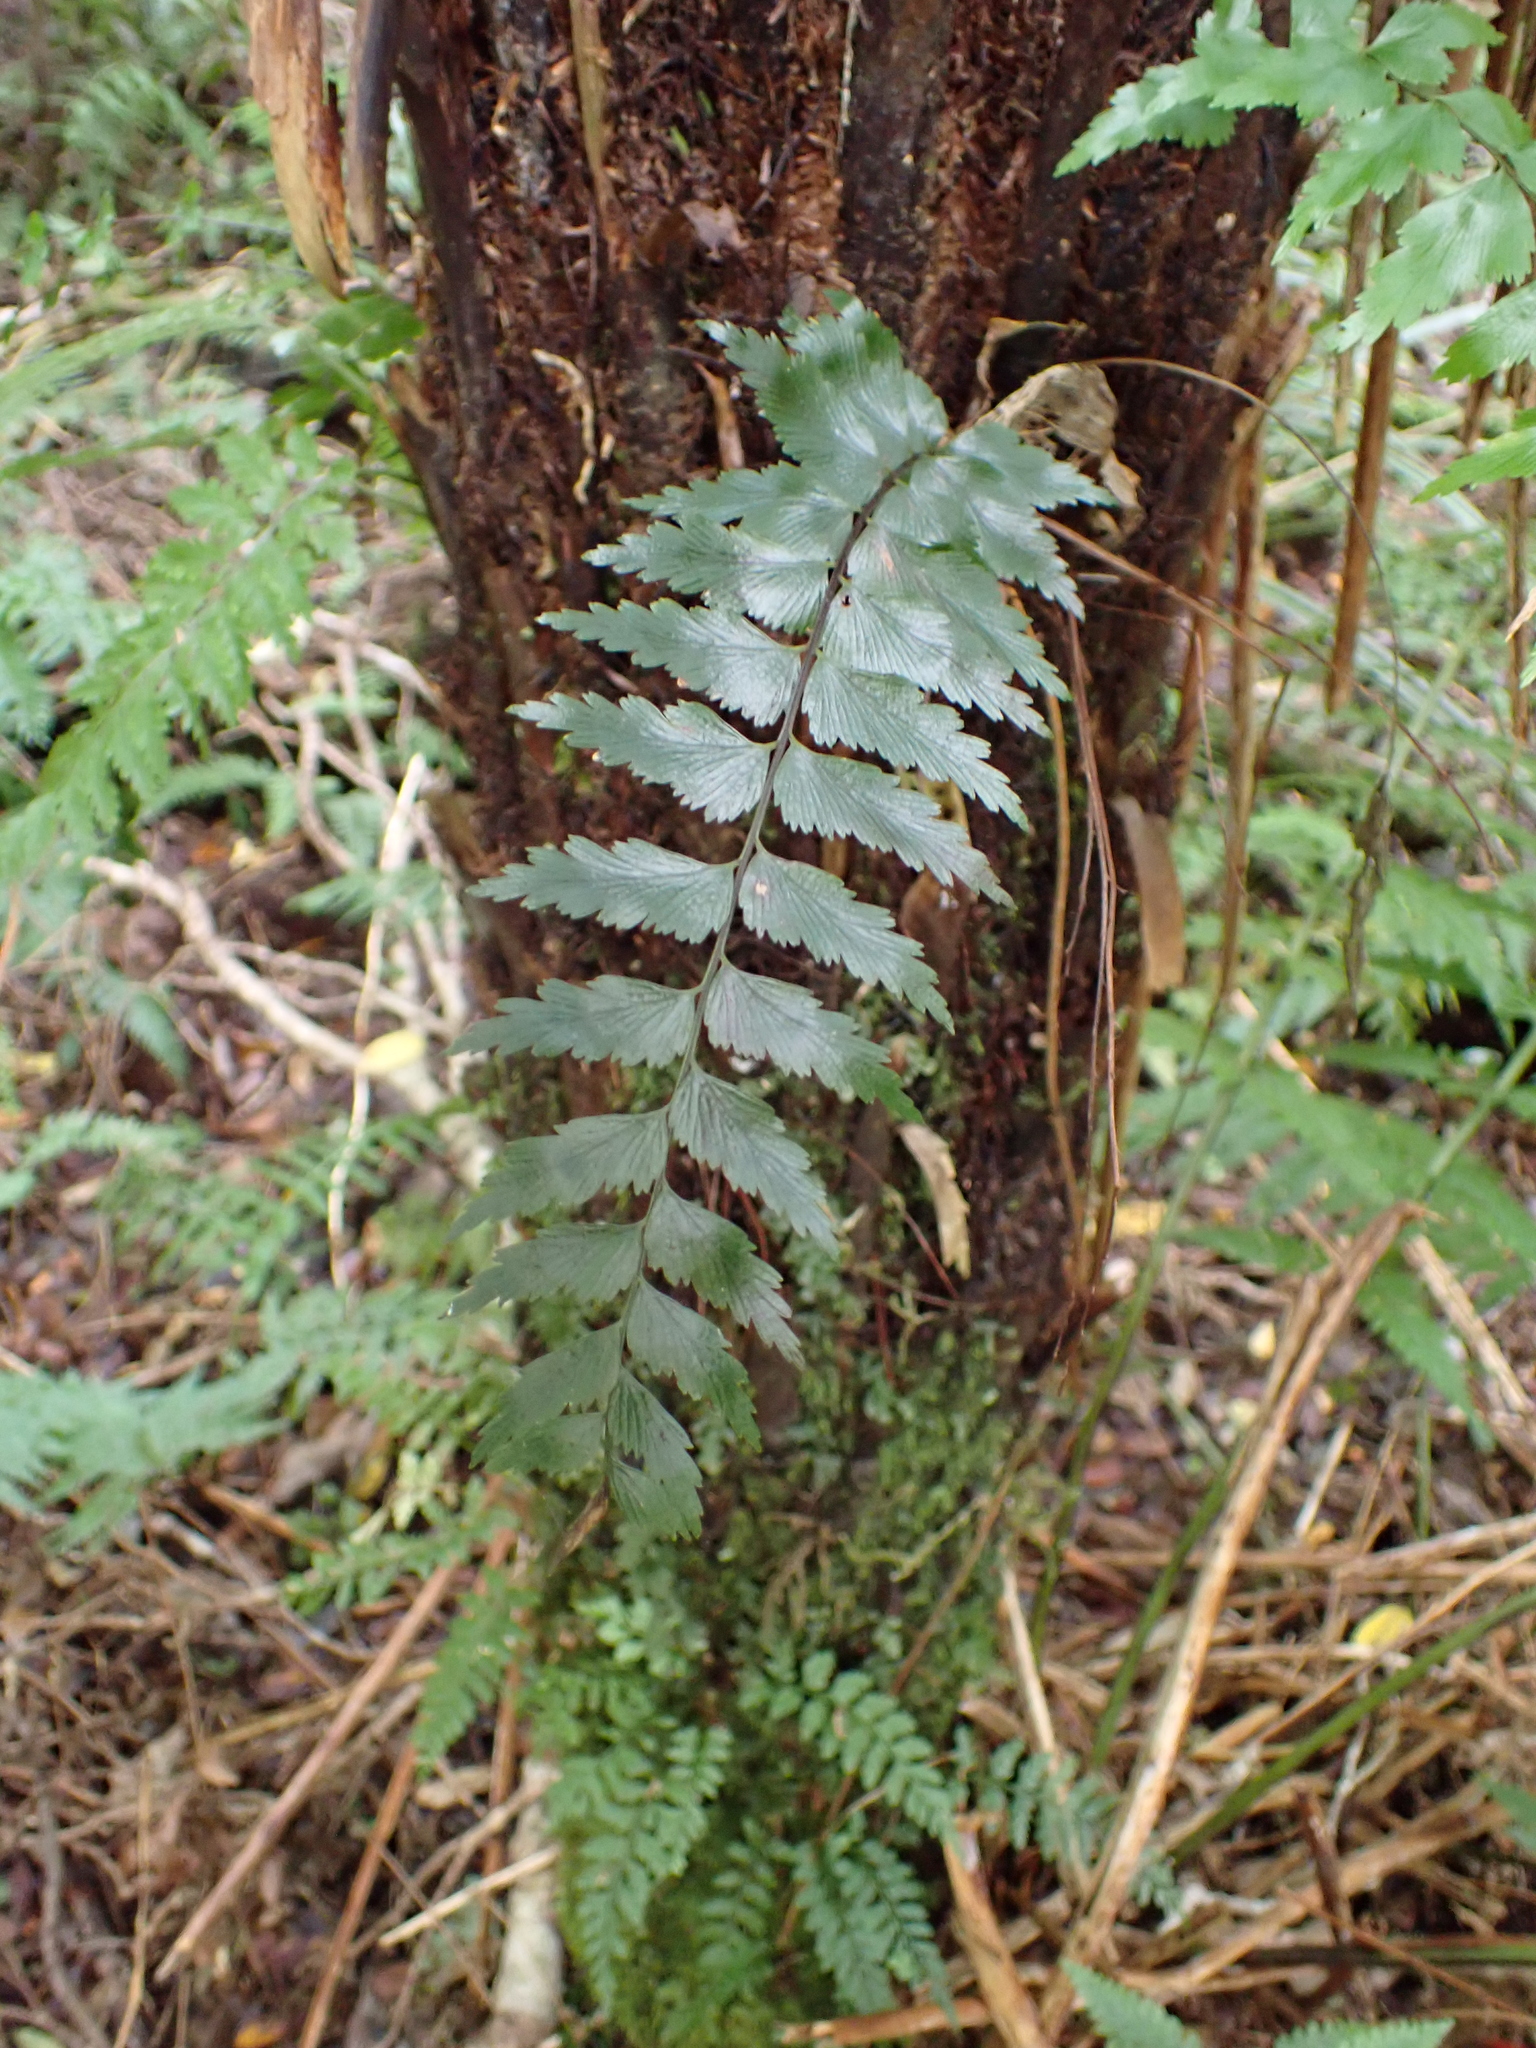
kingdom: Plantae
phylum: Tracheophyta
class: Polypodiopsida
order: Polypodiales
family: Aspleniaceae
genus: Asplenium
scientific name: Asplenium polyodon
